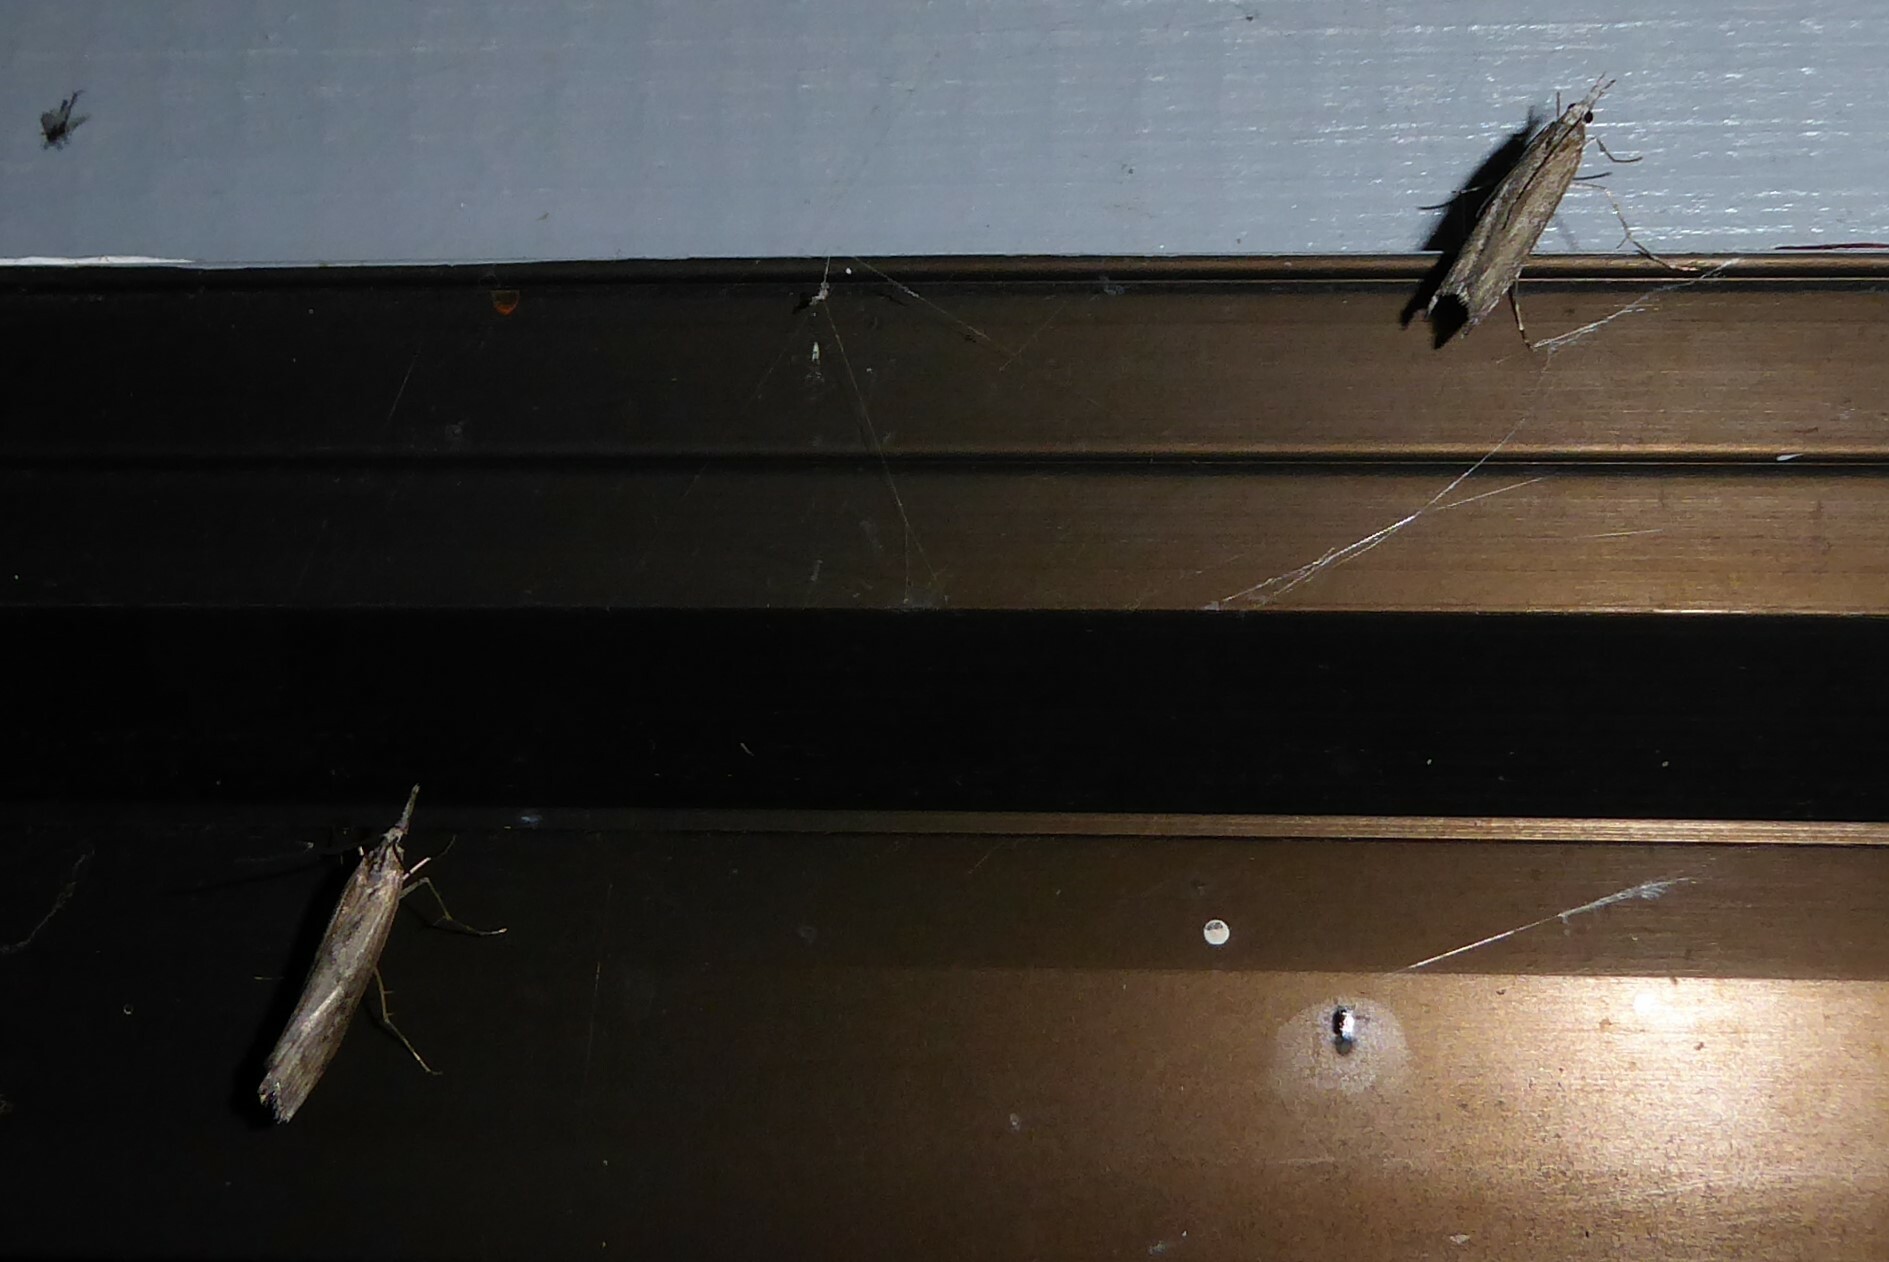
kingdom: Animalia
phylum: Arthropoda
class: Insecta
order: Lepidoptera
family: Crambidae
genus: Orocrambus
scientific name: Orocrambus cyclopicus
